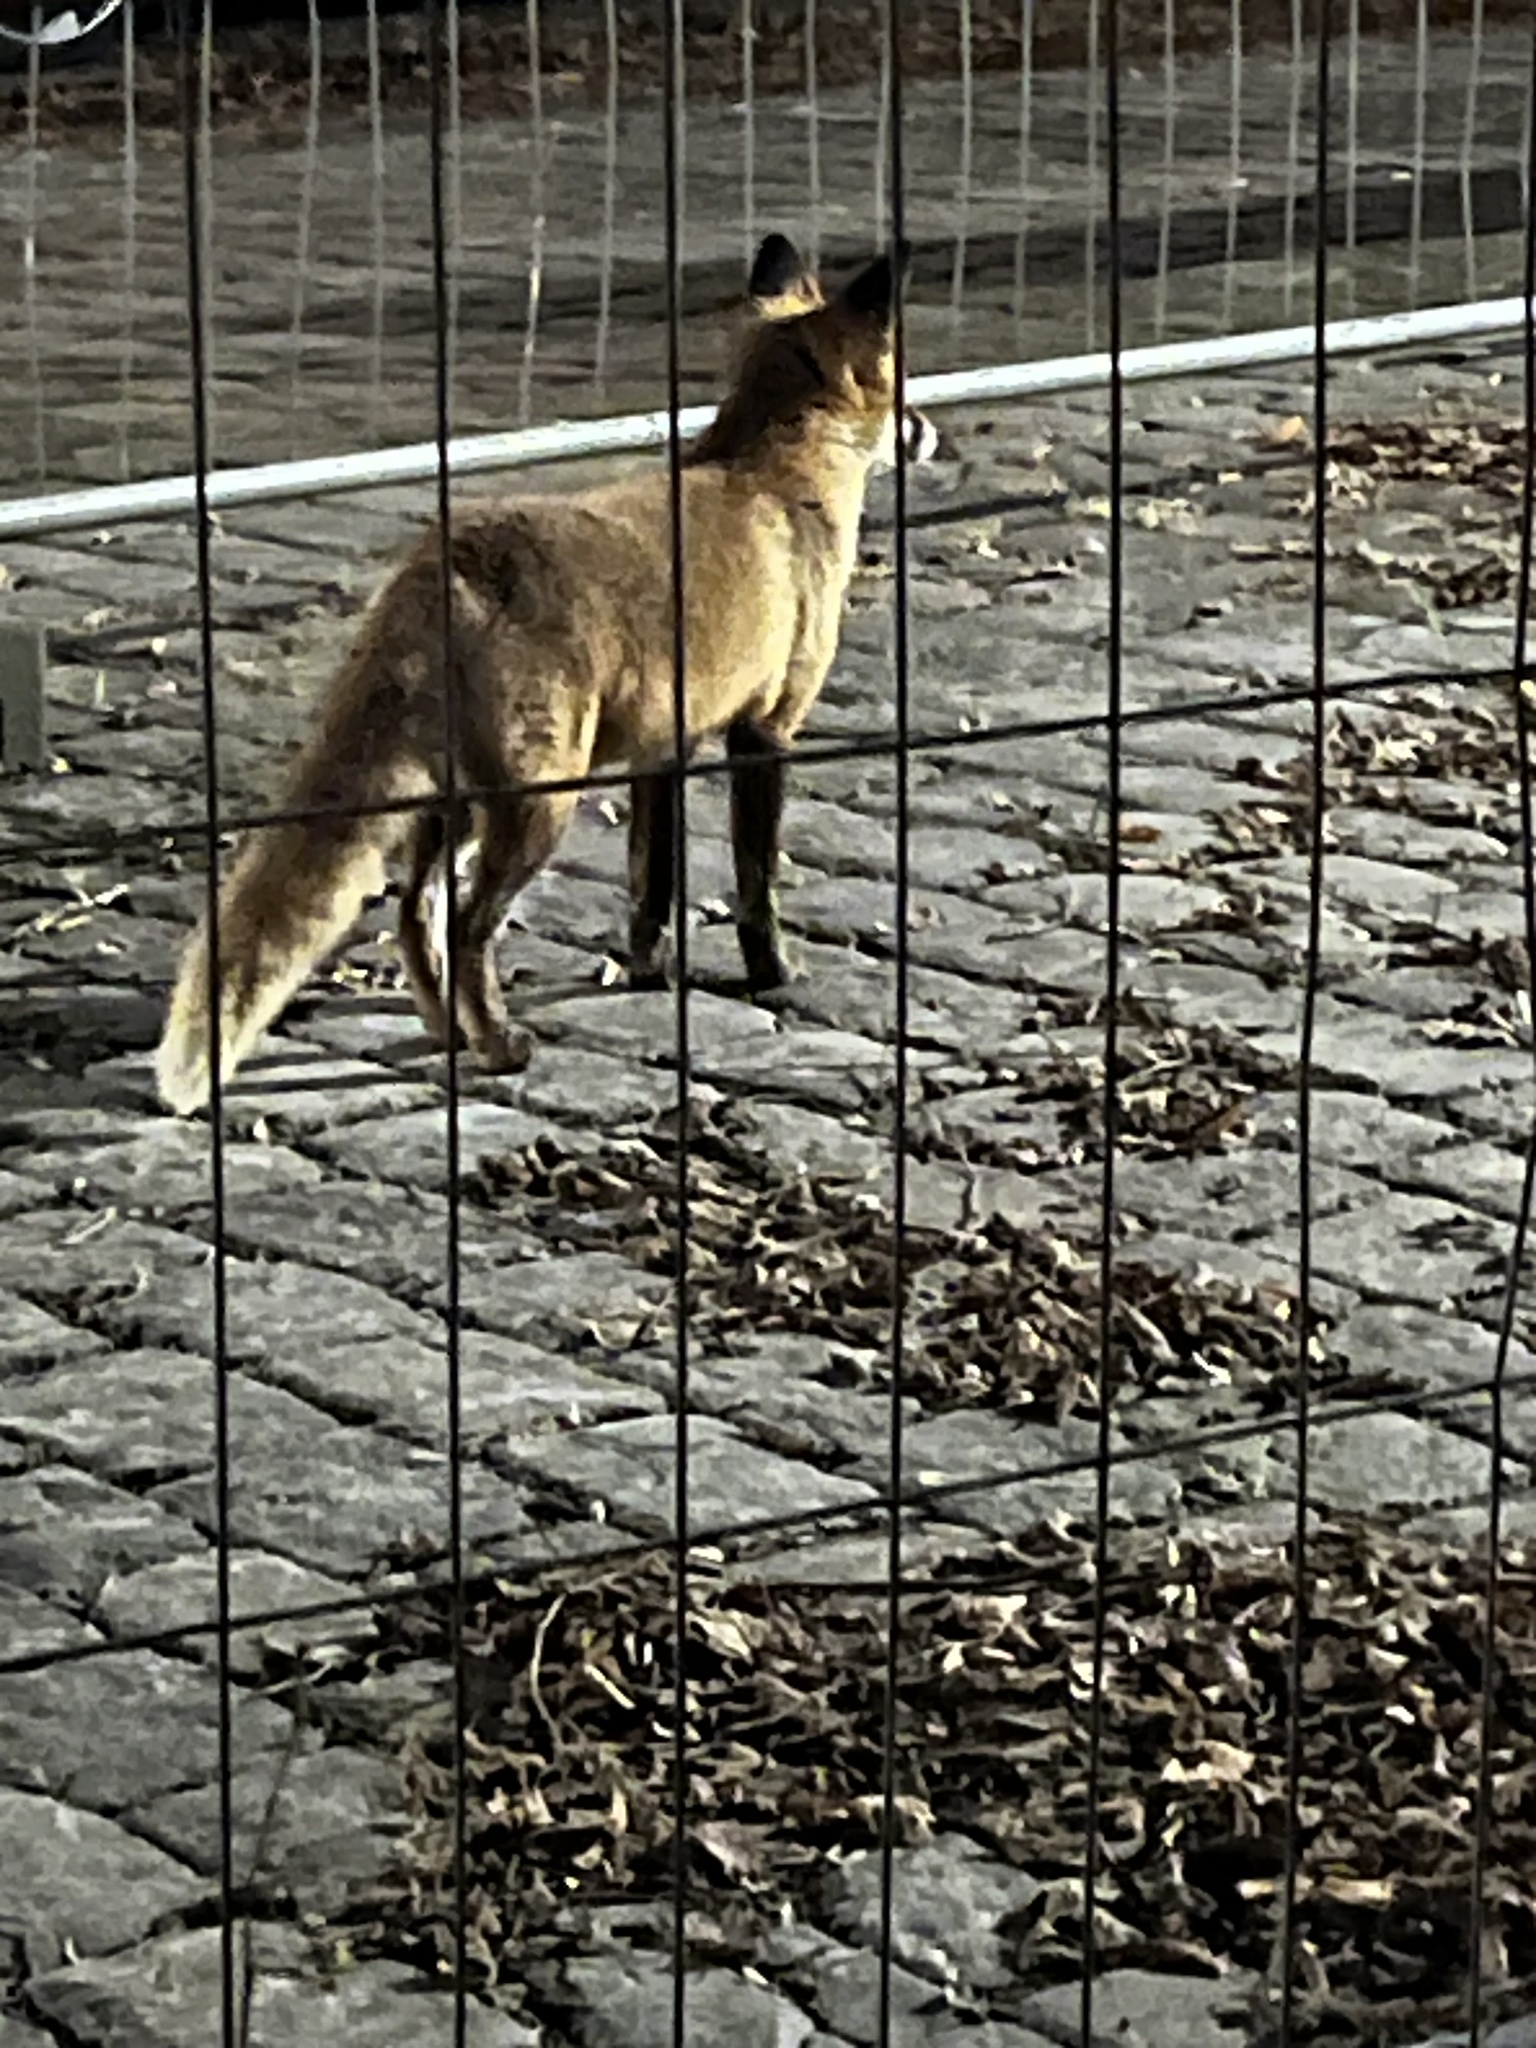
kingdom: Animalia
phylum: Chordata
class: Mammalia
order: Carnivora
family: Canidae
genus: Vulpes
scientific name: Vulpes vulpes
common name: Red fox
